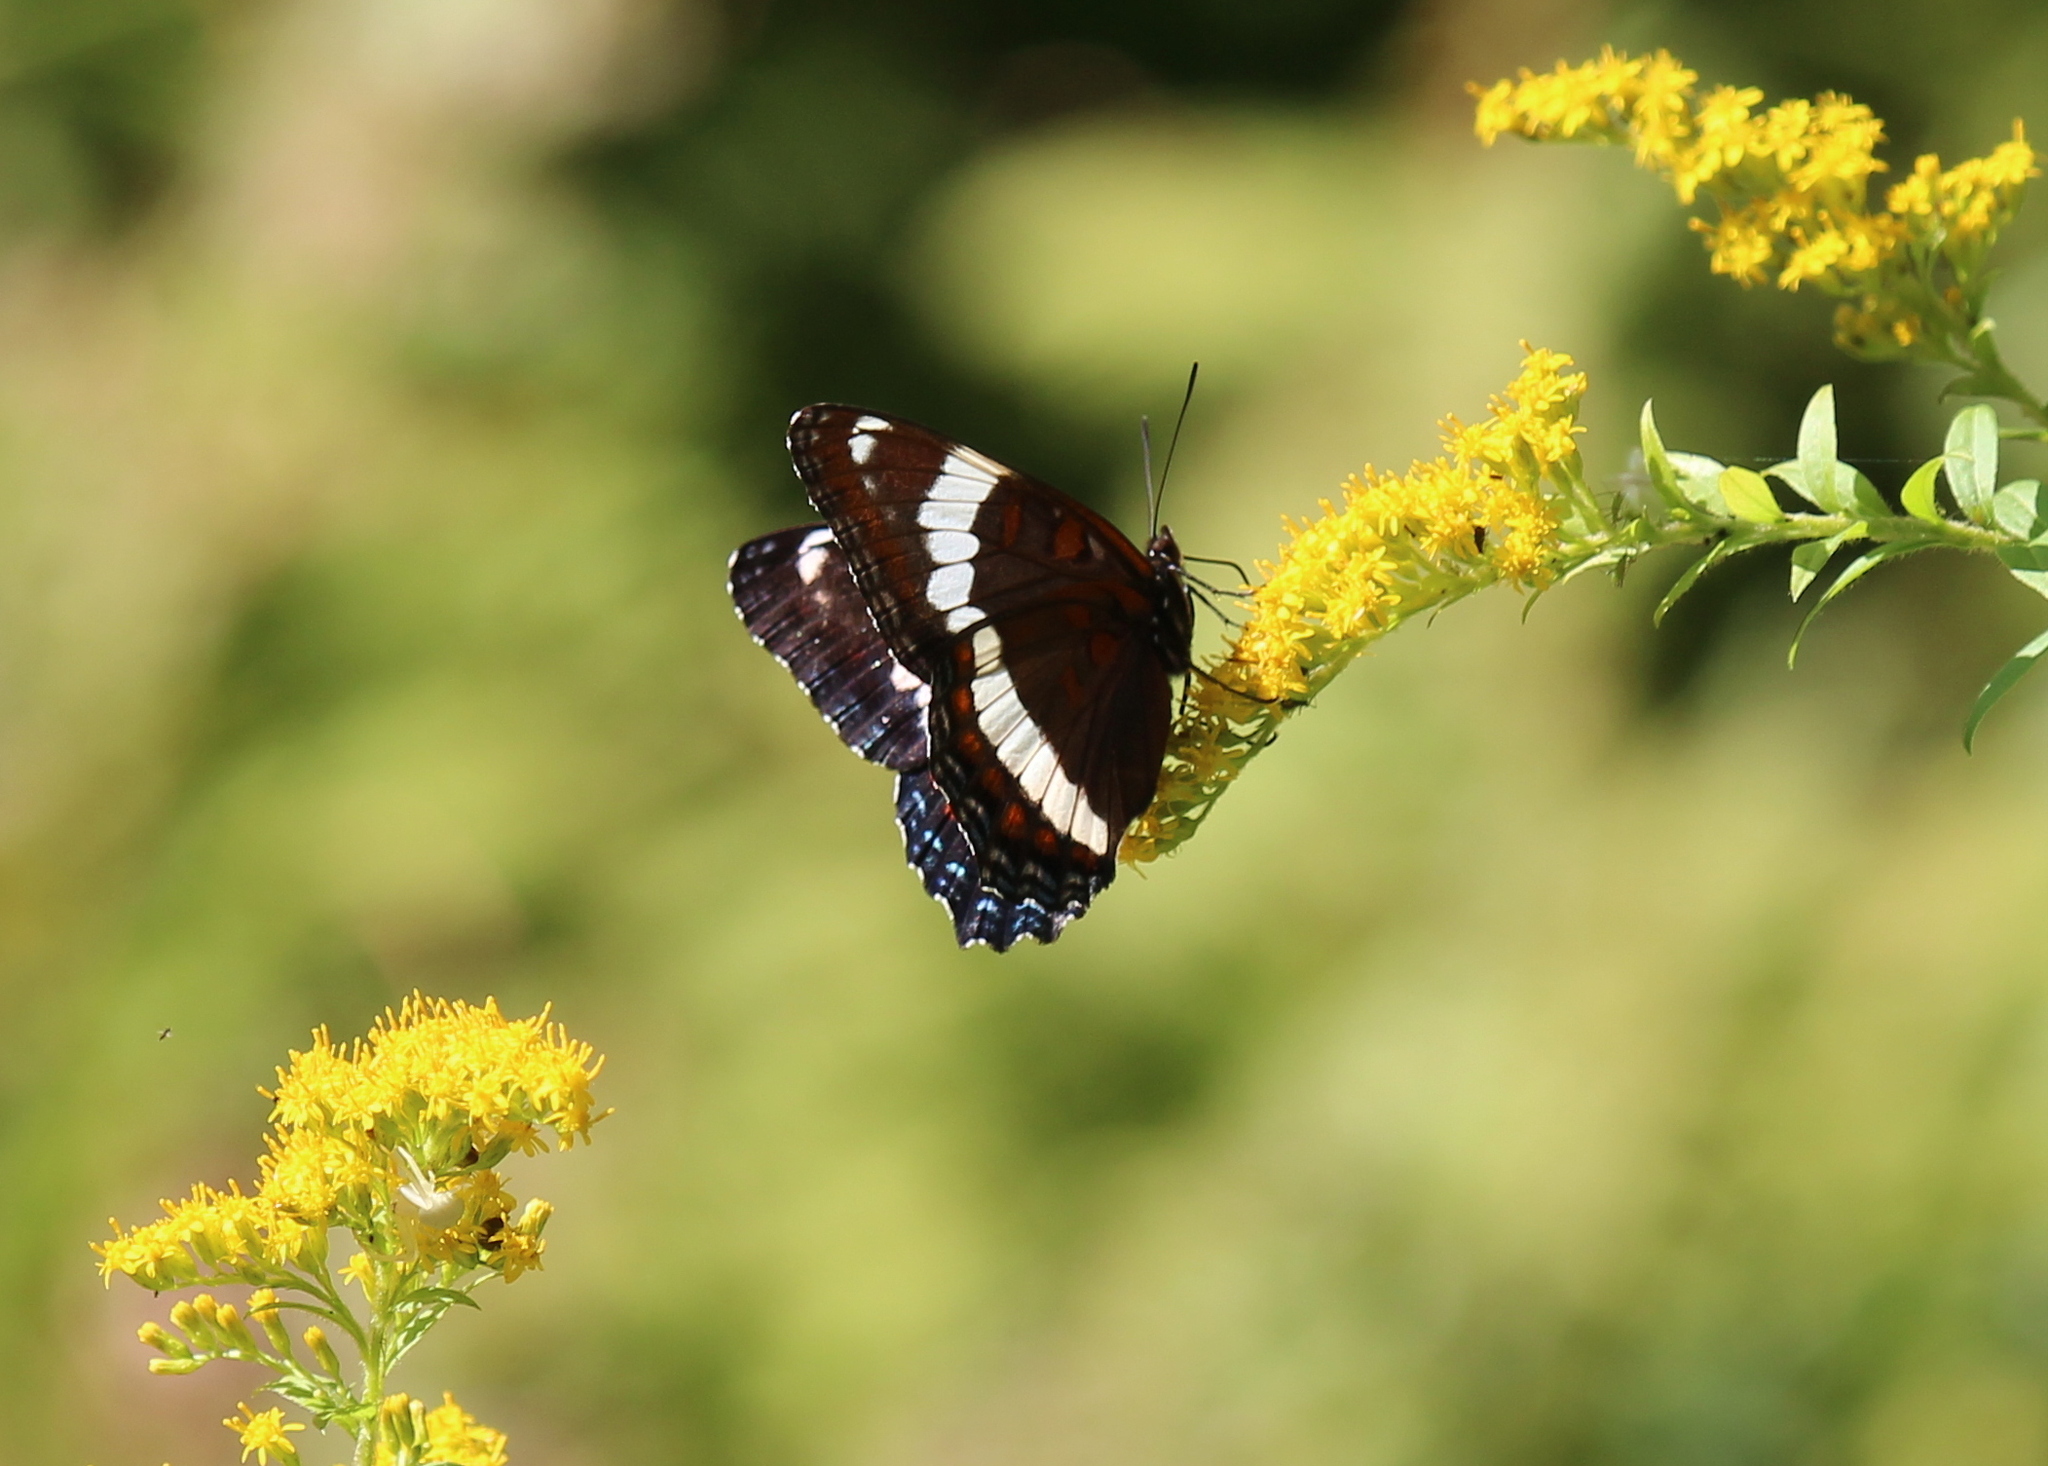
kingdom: Animalia
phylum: Arthropoda
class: Insecta
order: Lepidoptera
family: Nymphalidae
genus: Limenitis
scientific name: Limenitis arthemis
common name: Red-spotted admiral
